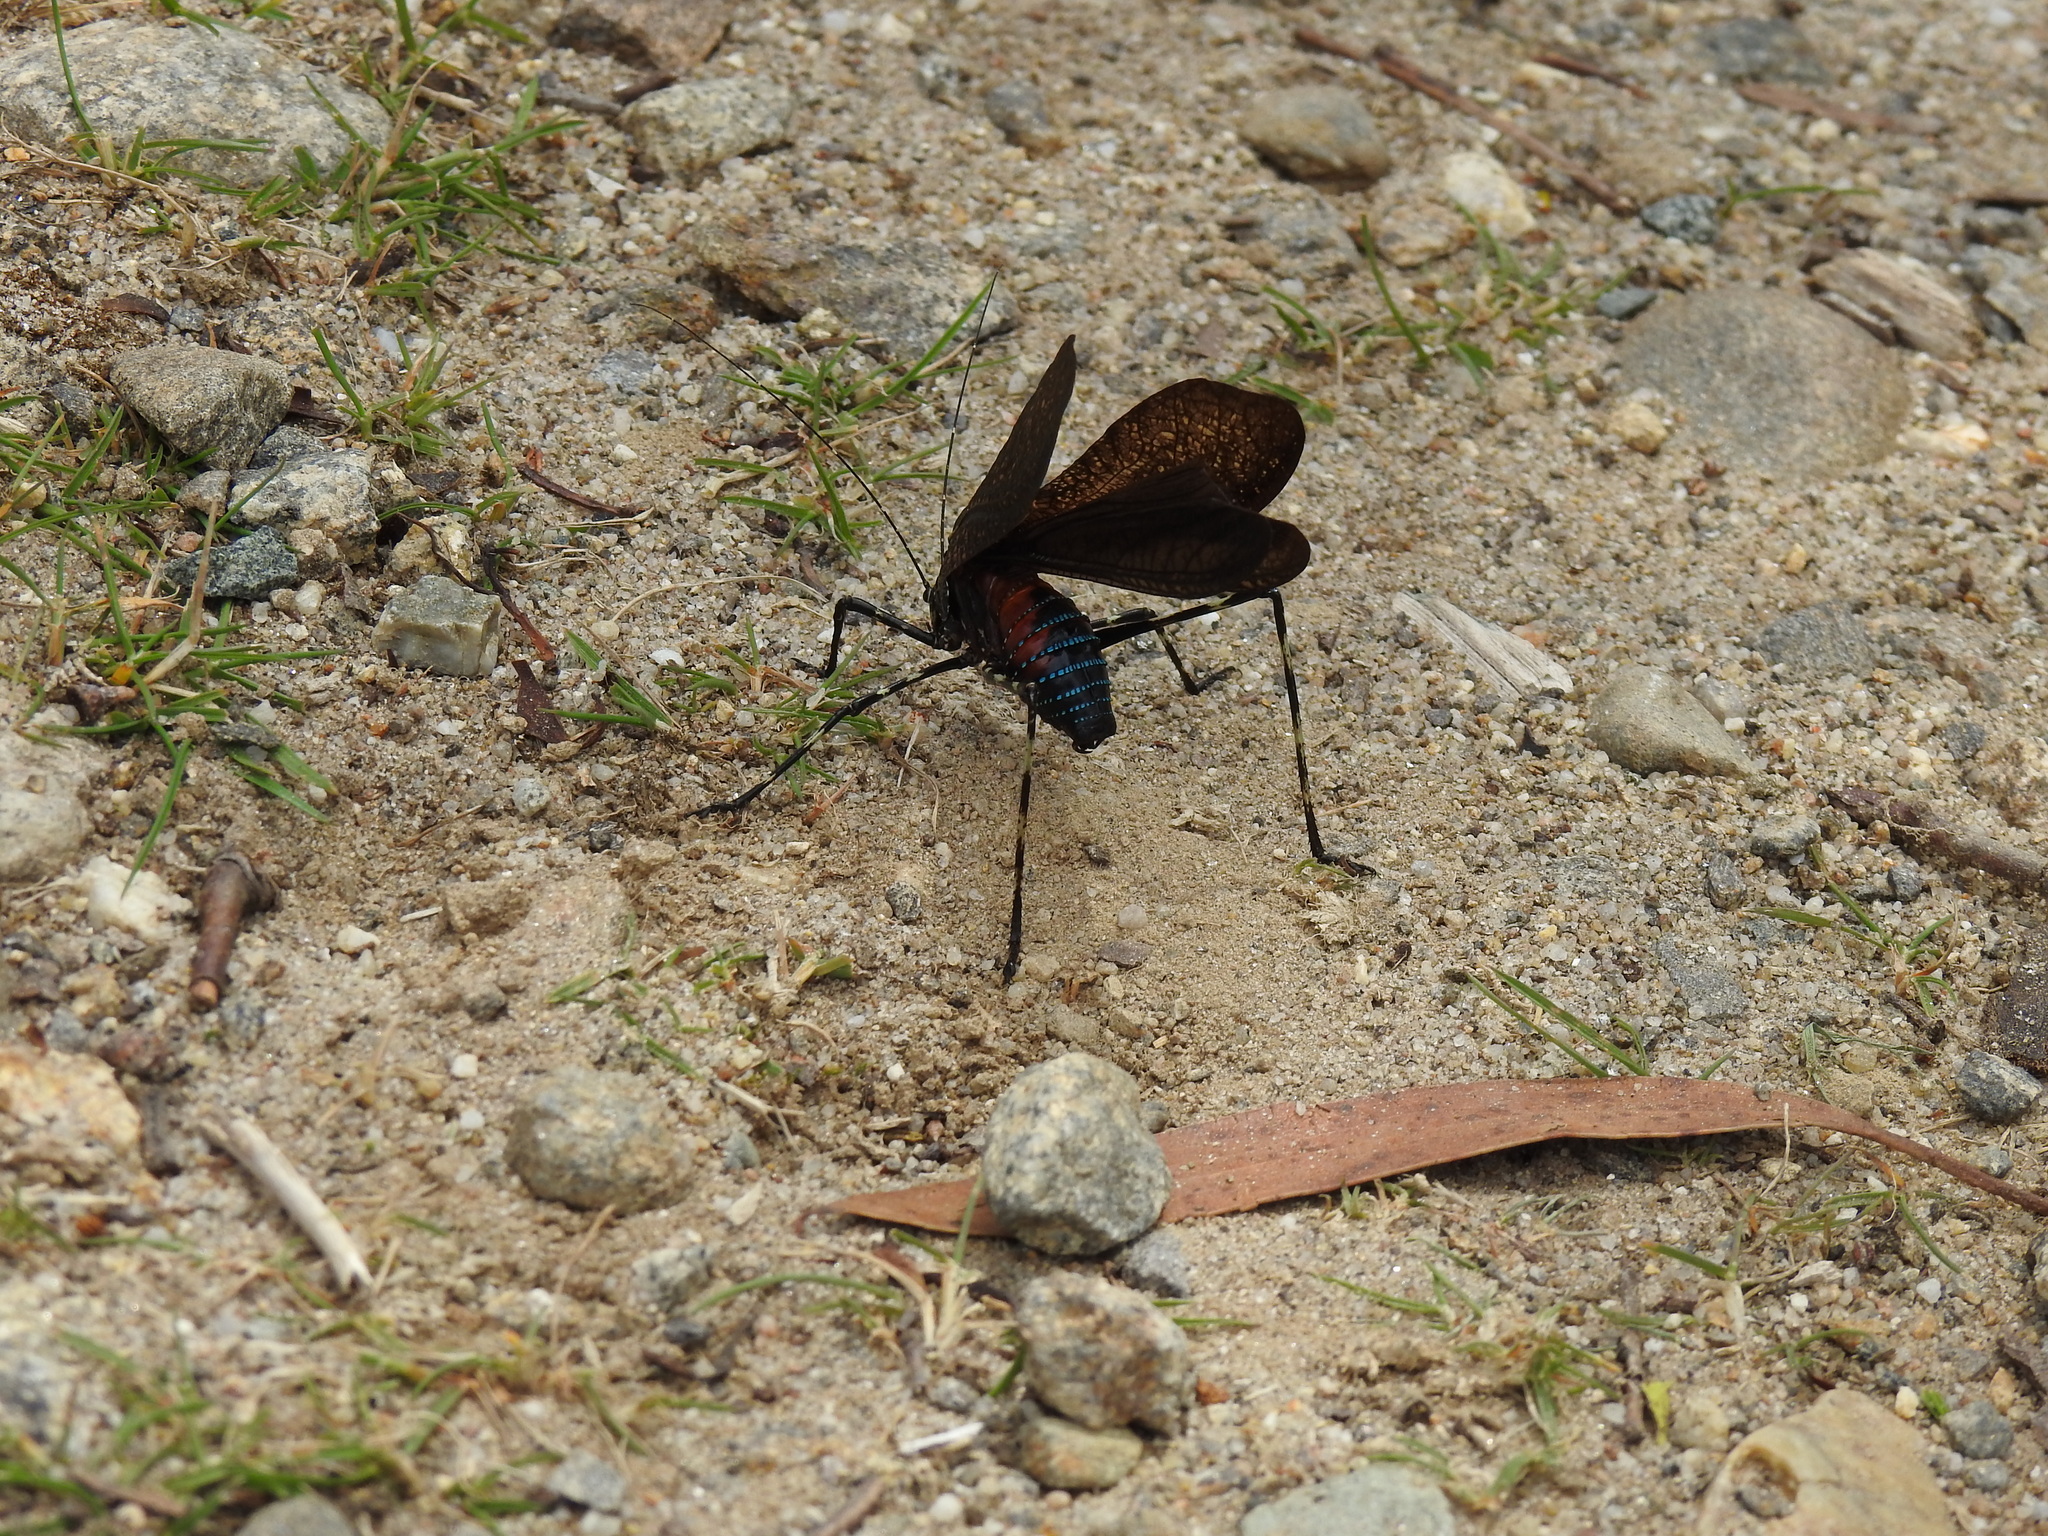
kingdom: Animalia
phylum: Arthropoda
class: Insecta
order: Orthoptera
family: Tettigoniidae
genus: Acripeza
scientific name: Acripeza reticulata
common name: Mountain katydid
